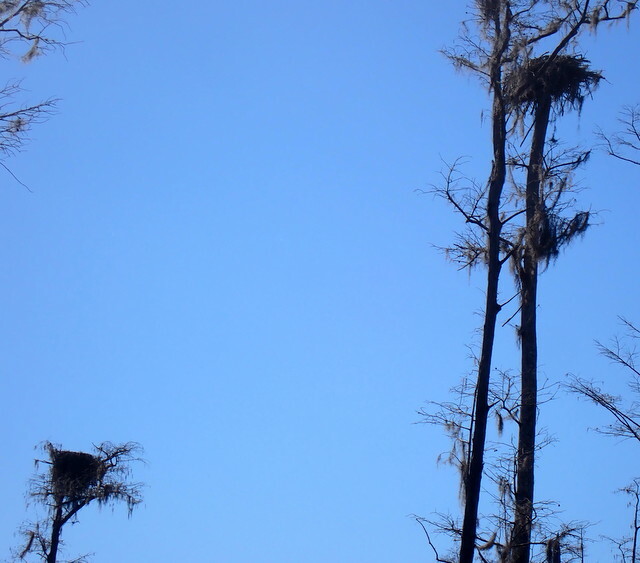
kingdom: Animalia
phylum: Chordata
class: Aves
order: Accipitriformes
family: Pandionidae
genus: Pandion
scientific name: Pandion haliaetus
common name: Osprey
